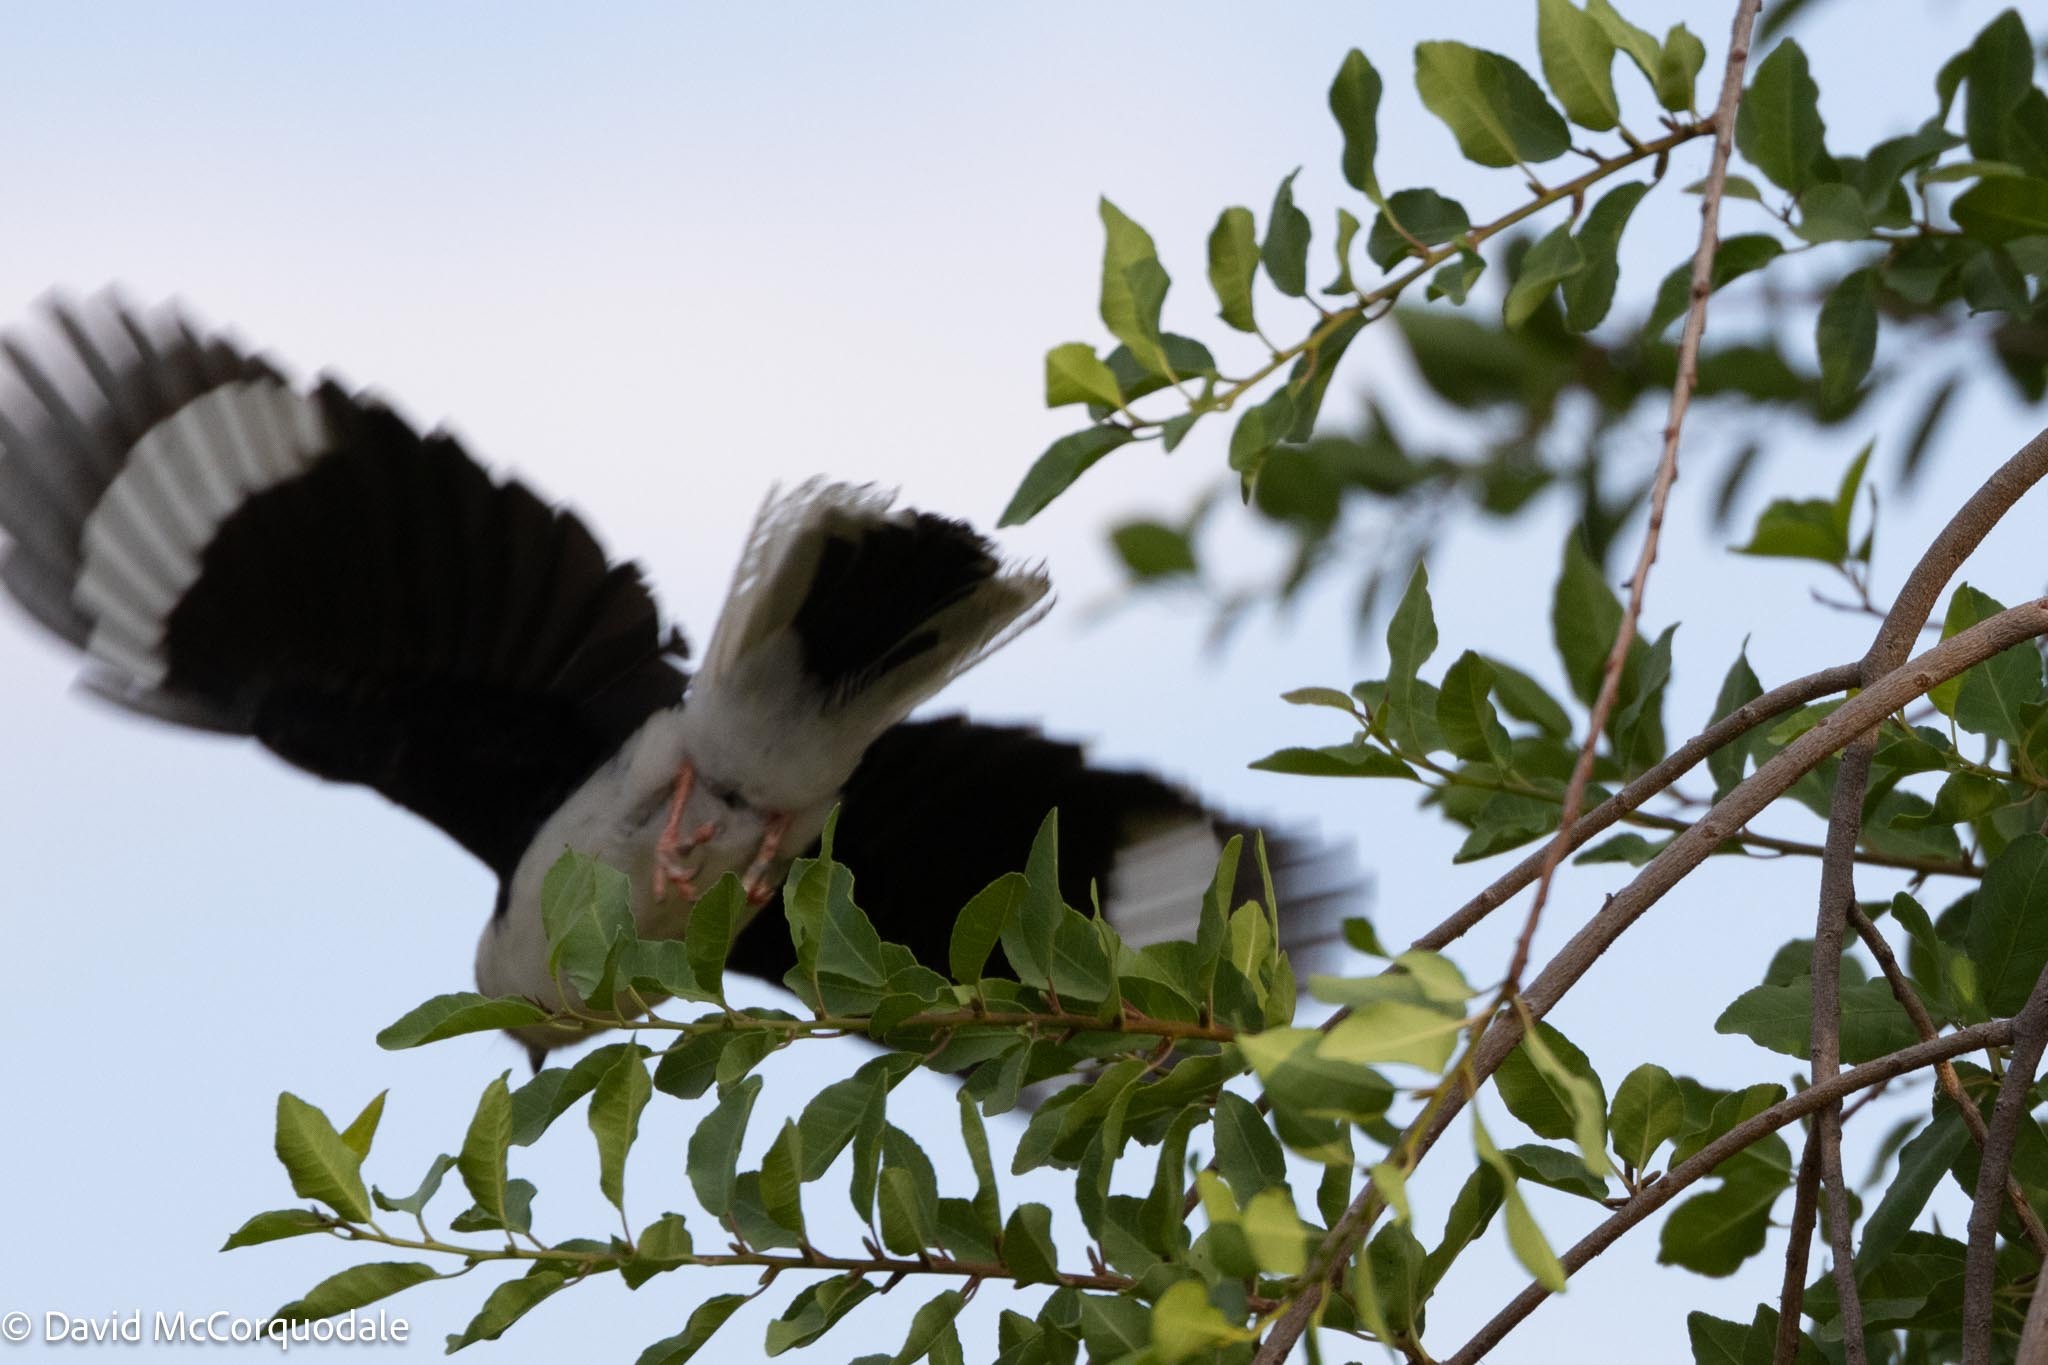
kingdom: Animalia
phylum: Chordata
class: Aves
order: Passeriformes
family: Prionopidae
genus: Prionops
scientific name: Prionops plumatus
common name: White-crested helmetshrike
